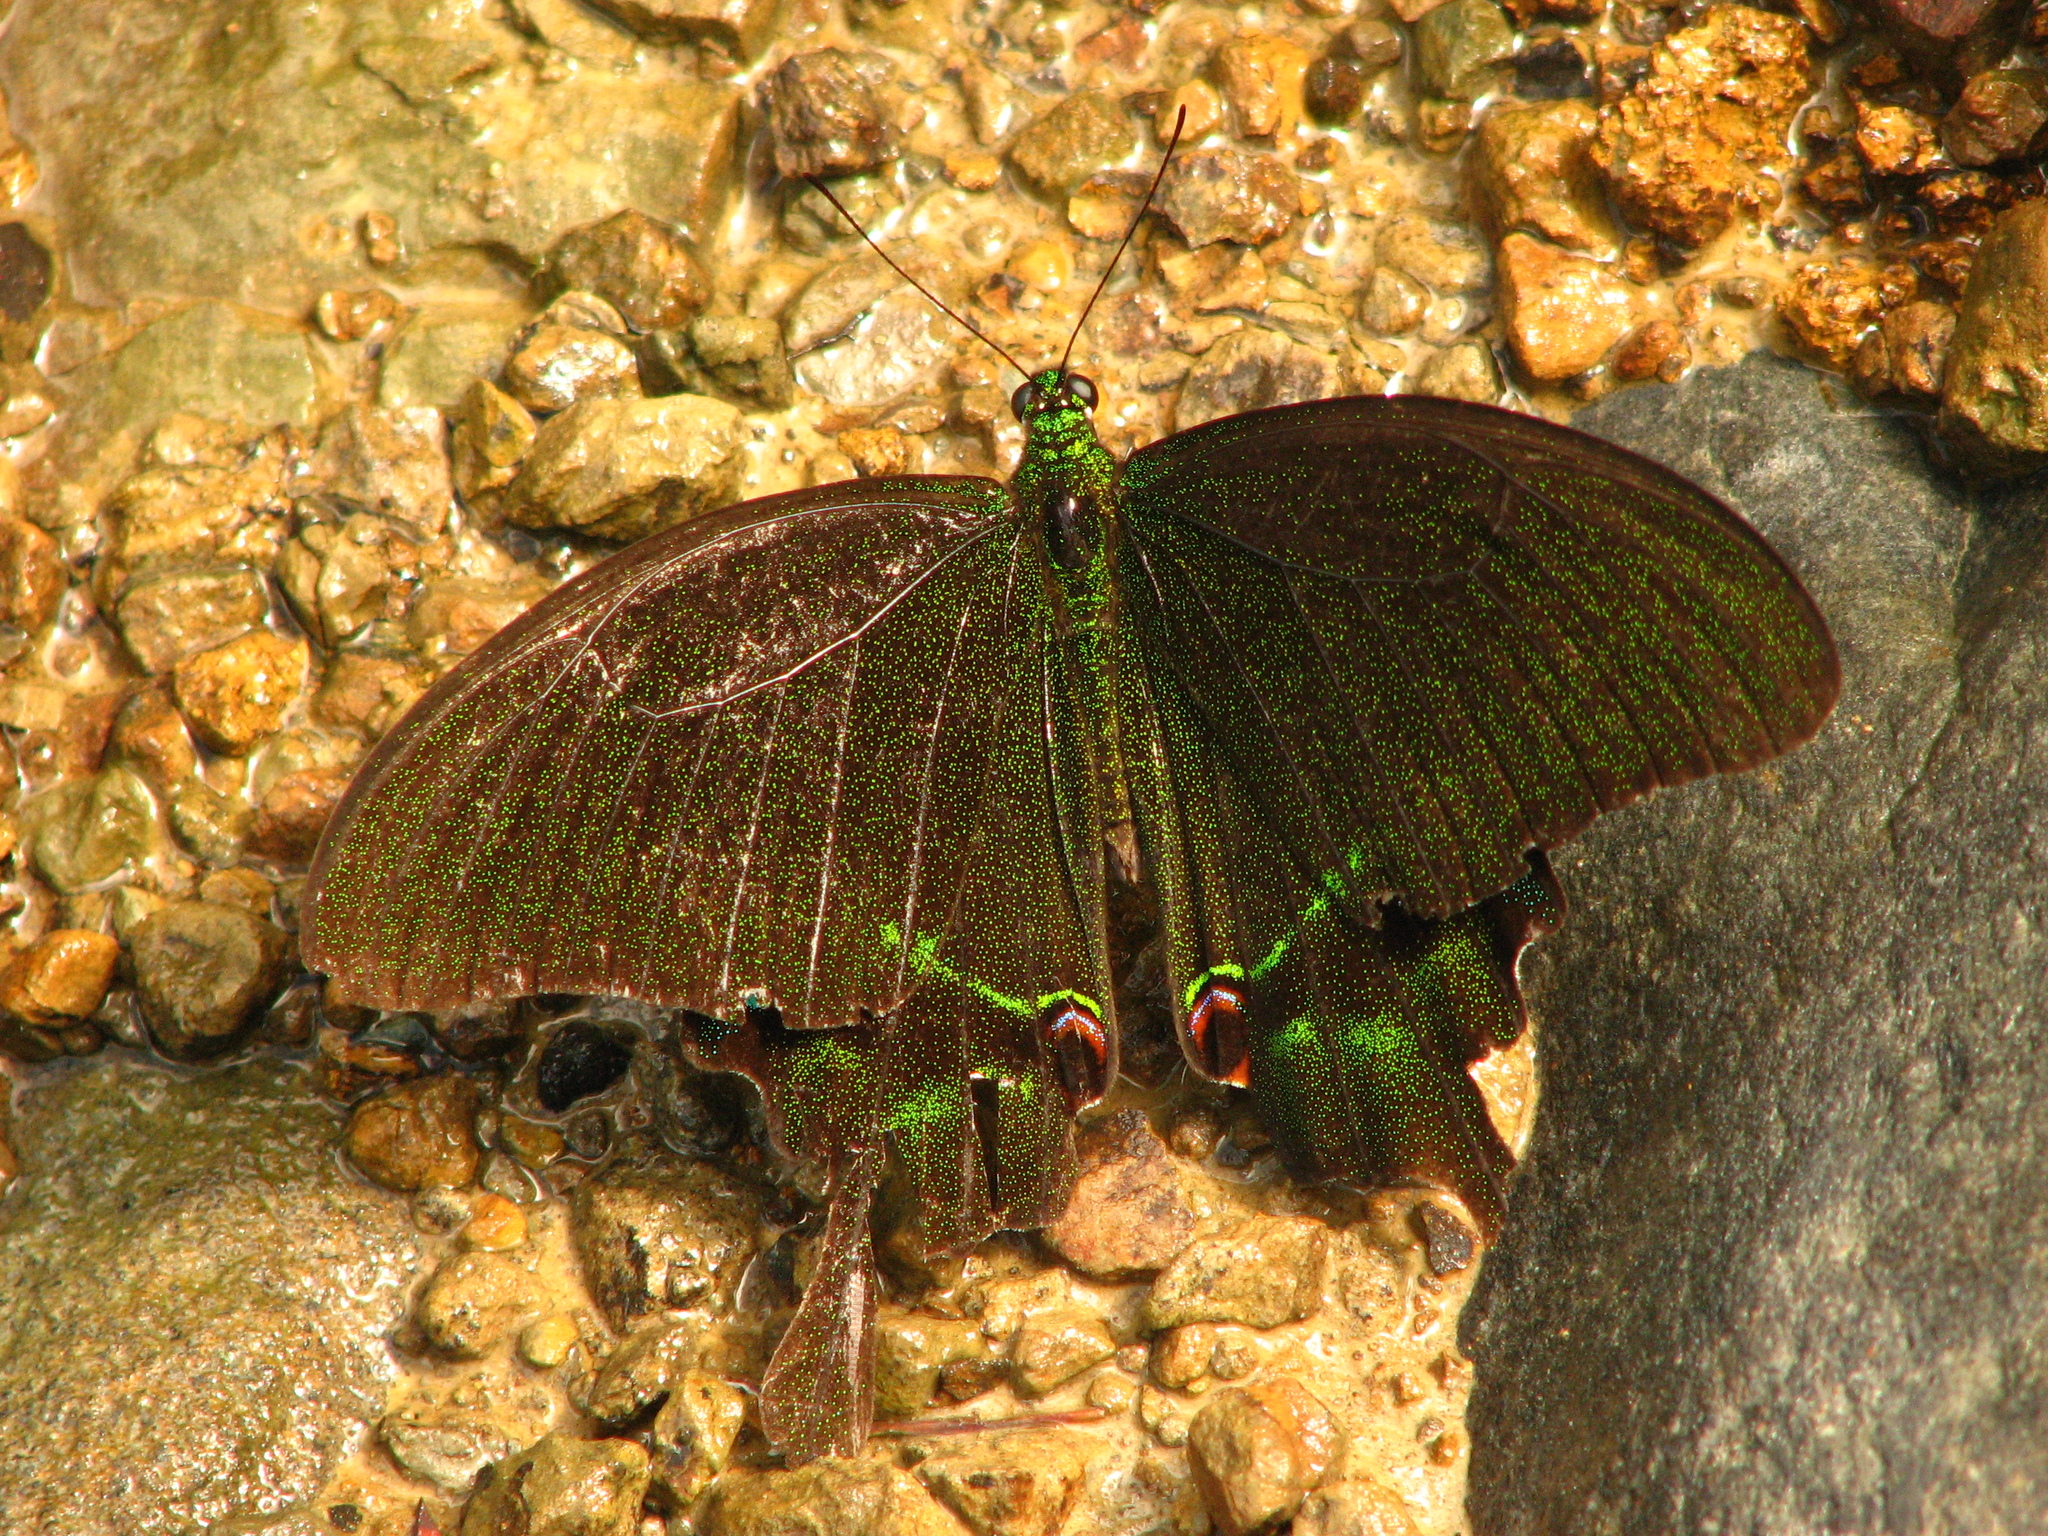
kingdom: Animalia
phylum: Arthropoda
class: Insecta
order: Lepidoptera
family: Papilionidae
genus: Papilio
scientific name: Papilio paris
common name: Paris peacock
